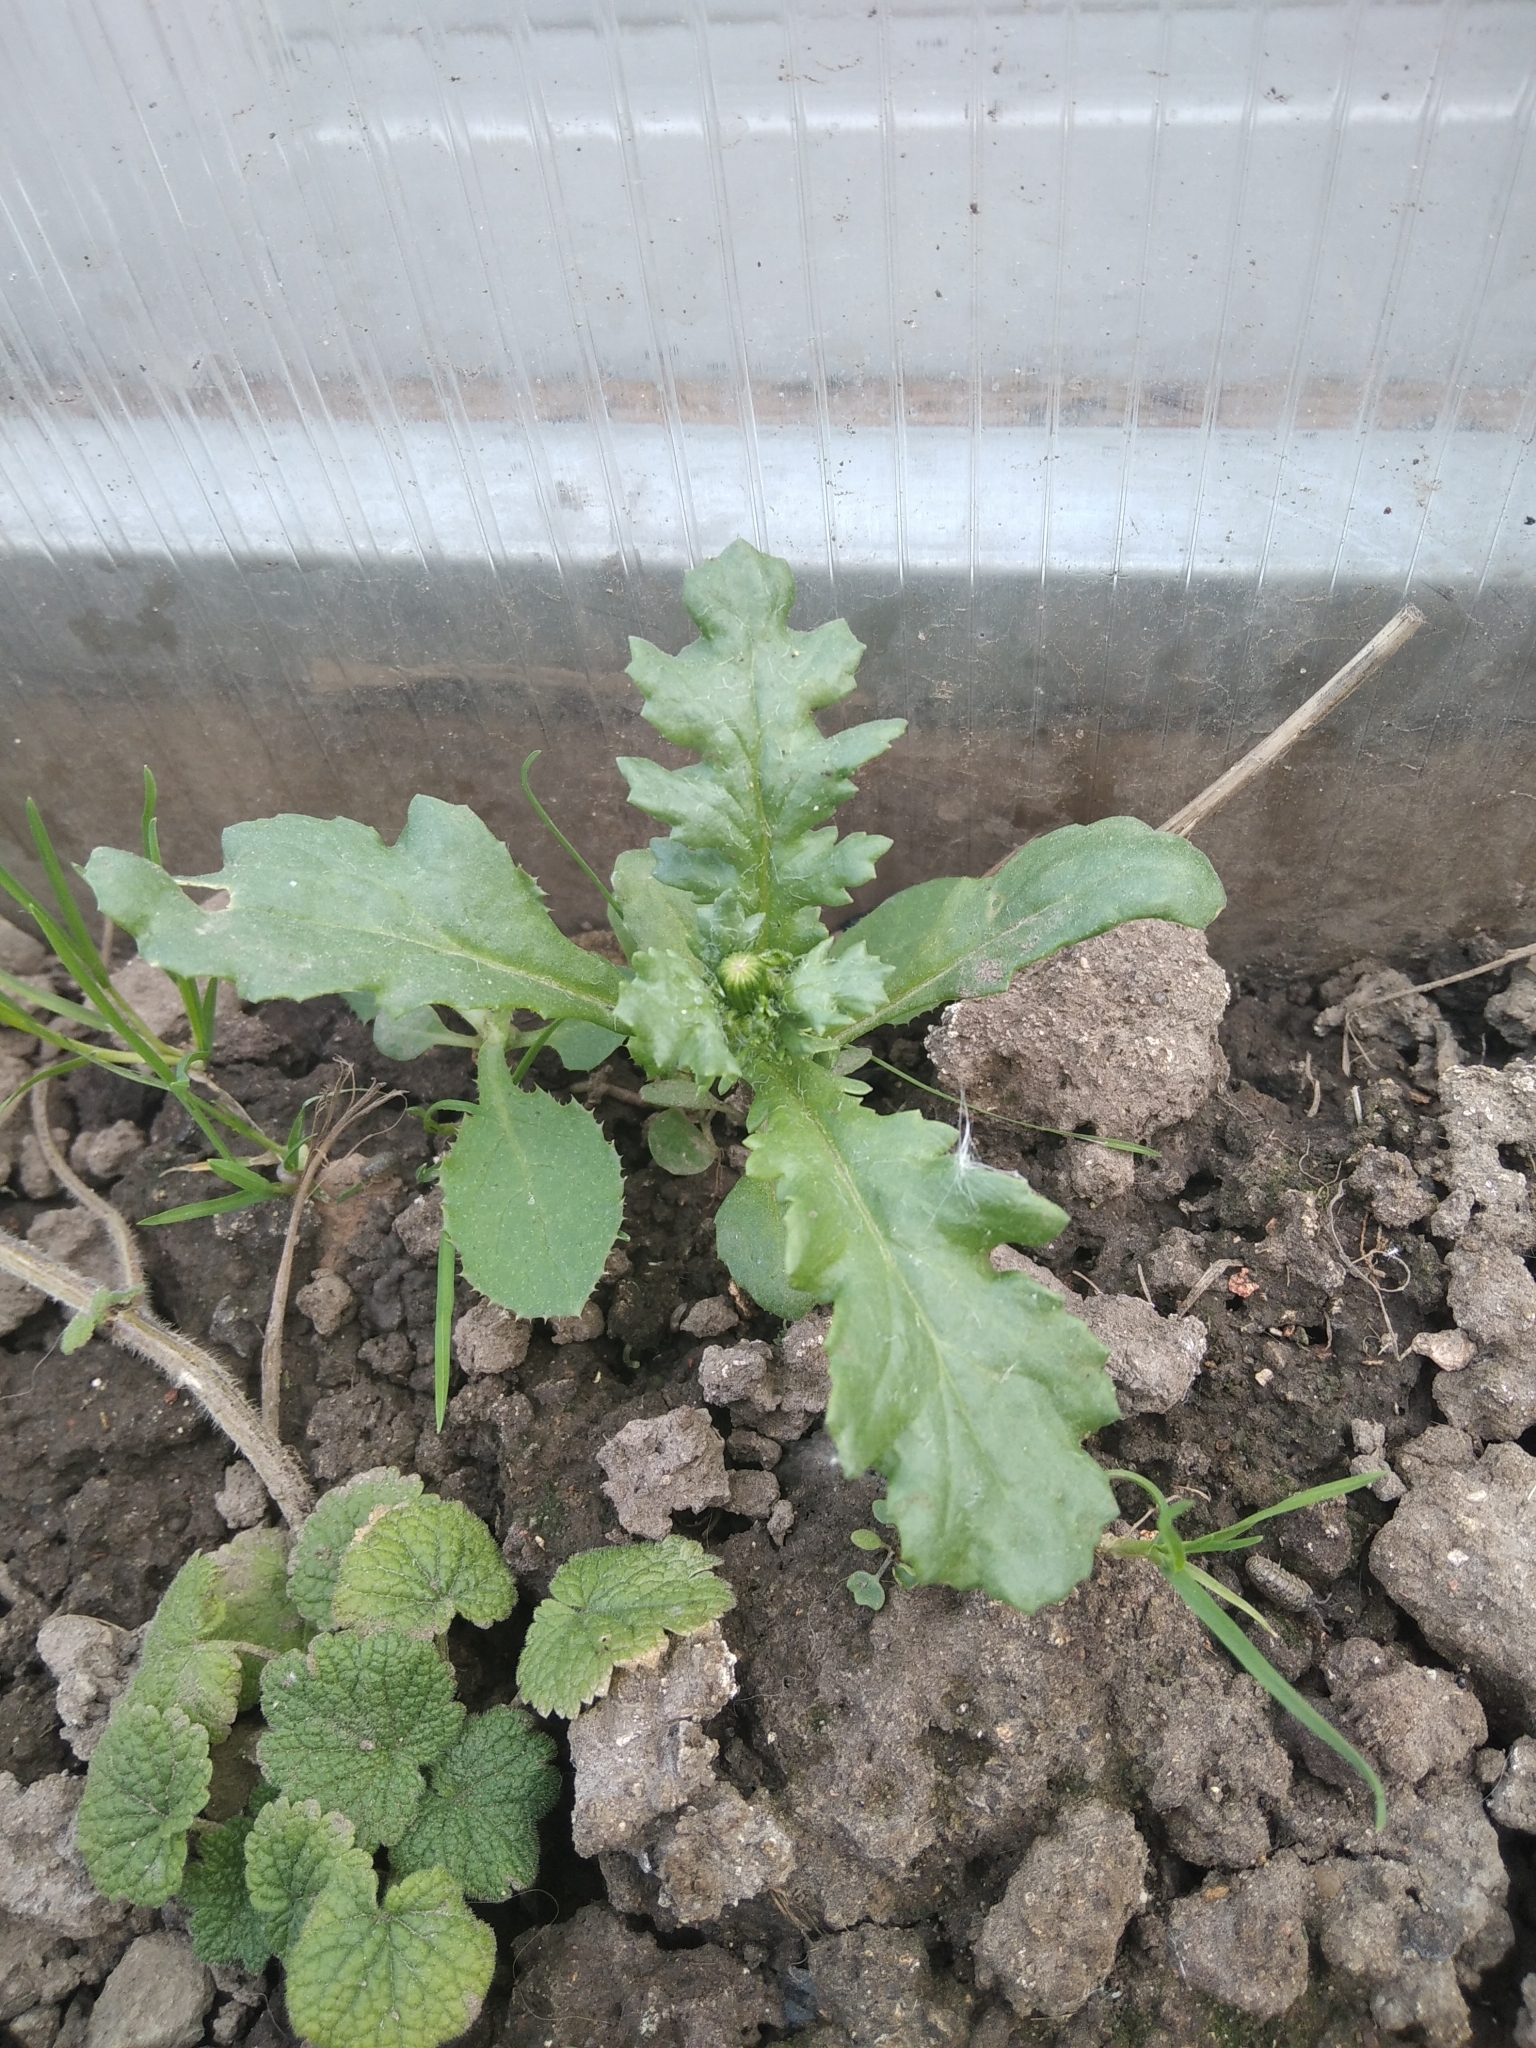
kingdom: Plantae
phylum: Tracheophyta
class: Magnoliopsida
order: Asterales
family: Asteraceae
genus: Senecio
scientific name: Senecio vulgaris
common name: Old-man-in-the-spring
